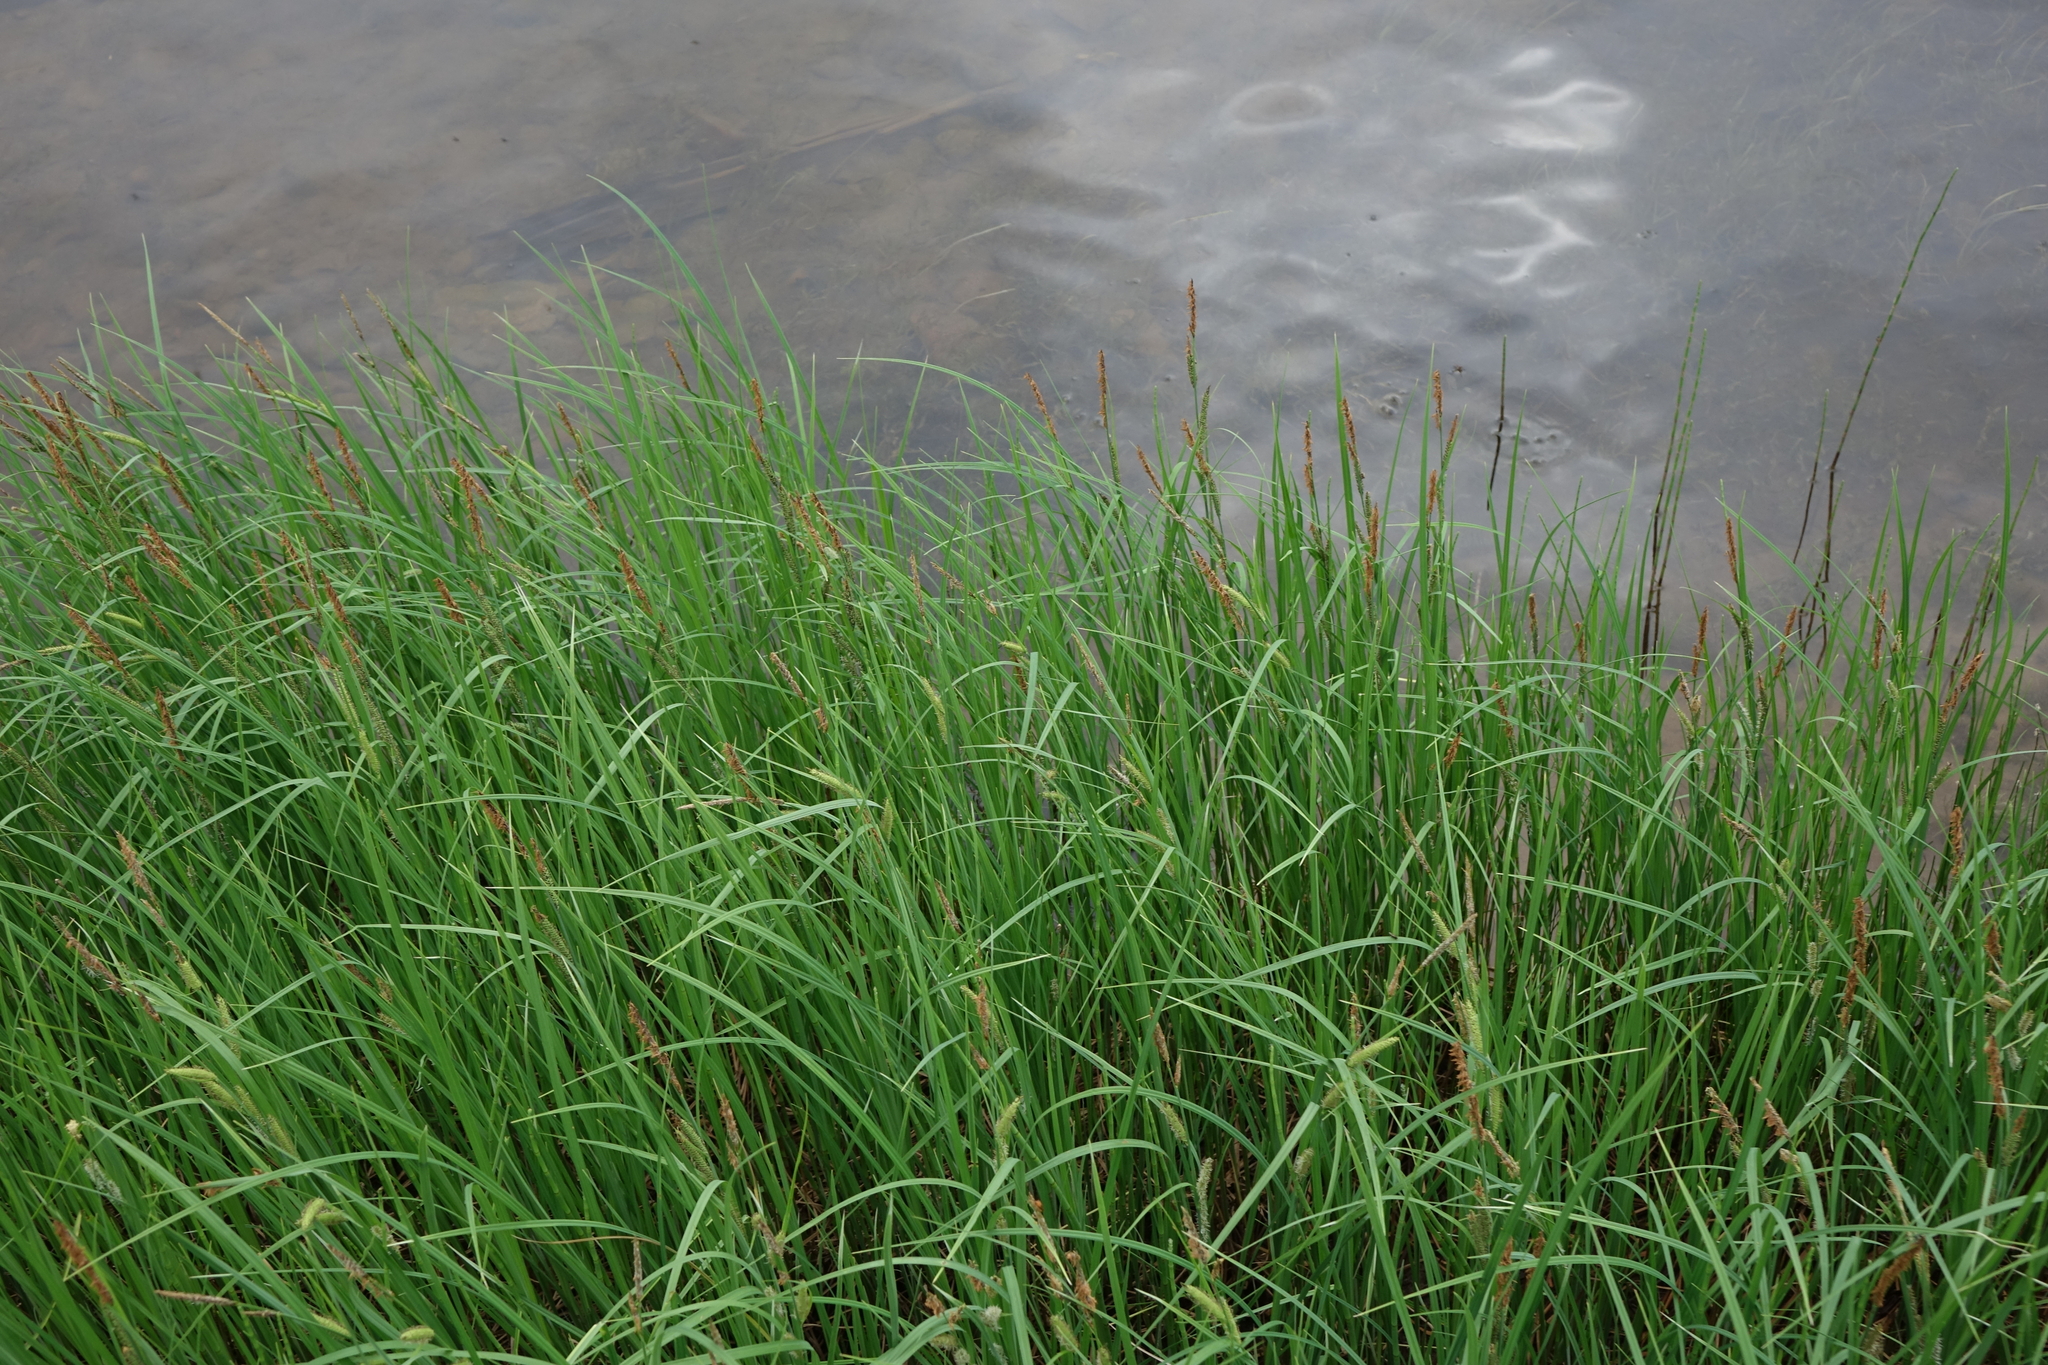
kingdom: Plantae
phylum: Tracheophyta
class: Liliopsida
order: Poales
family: Cyperaceae
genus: Carex
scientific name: Carex aquatilis
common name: Water sedge
